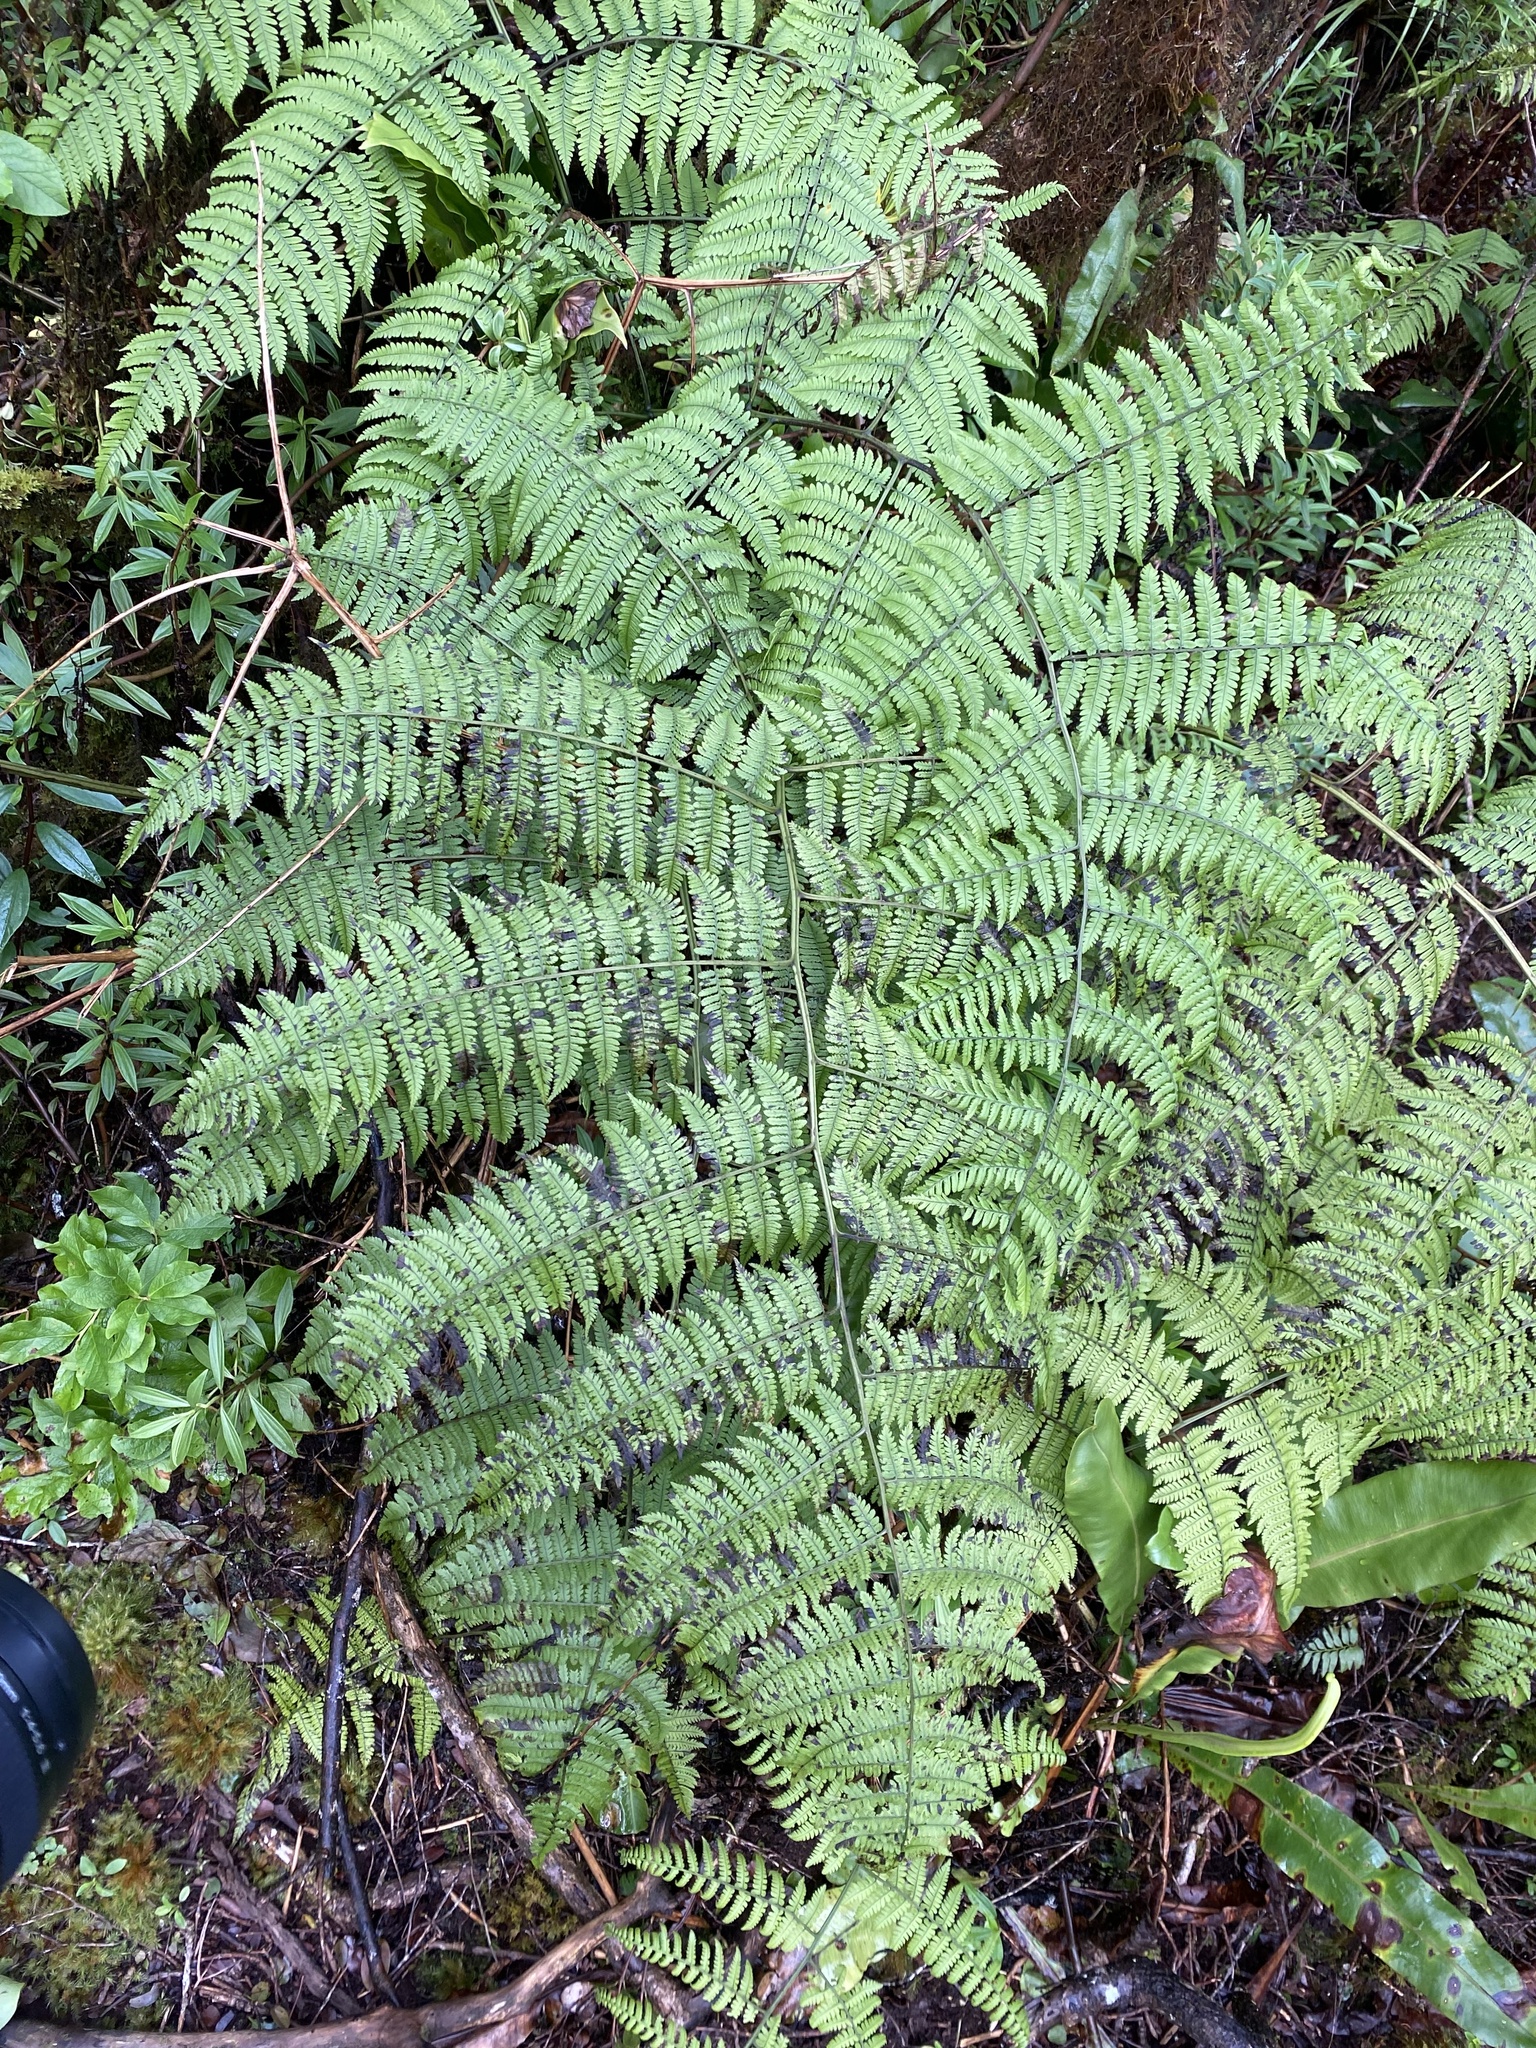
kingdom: Plantae
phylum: Tracheophyta
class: Polypodiopsida
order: Polypodiales
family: Thelypteridaceae
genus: Macrothelypteris
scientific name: Macrothelypteris torresiana
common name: Swordfern
